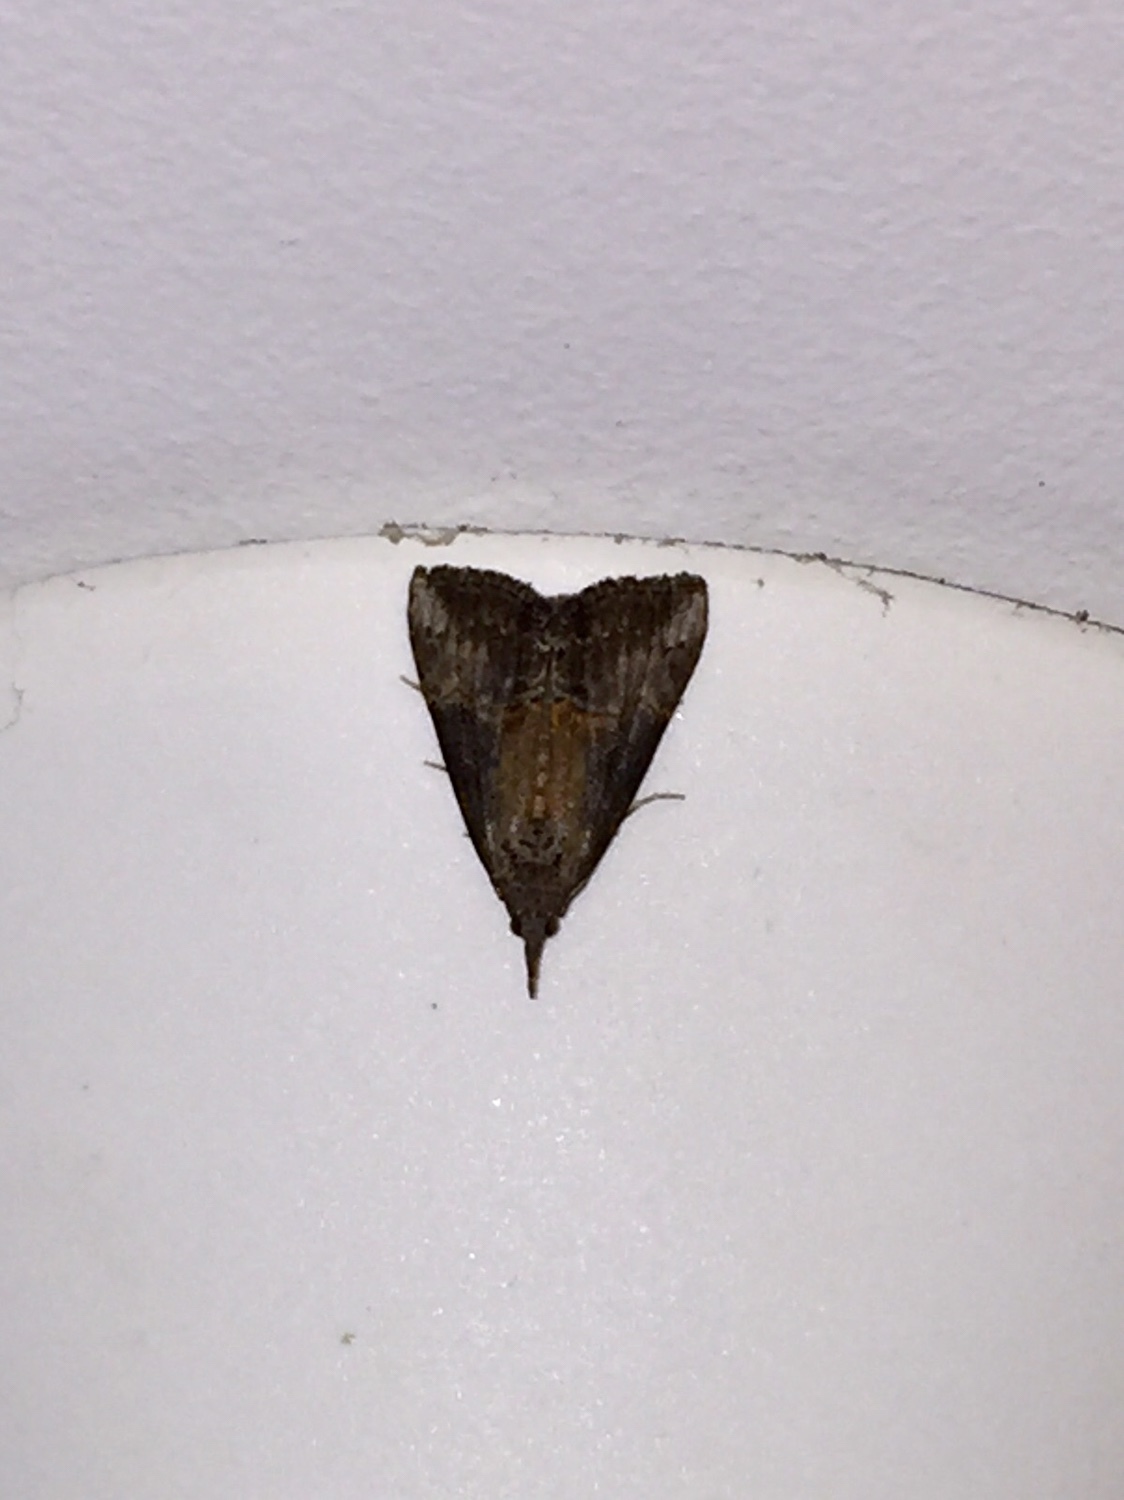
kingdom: Animalia
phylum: Arthropoda
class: Insecta
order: Lepidoptera
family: Erebidae
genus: Hypena
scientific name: Hypena scabra
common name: Green cloverworm
